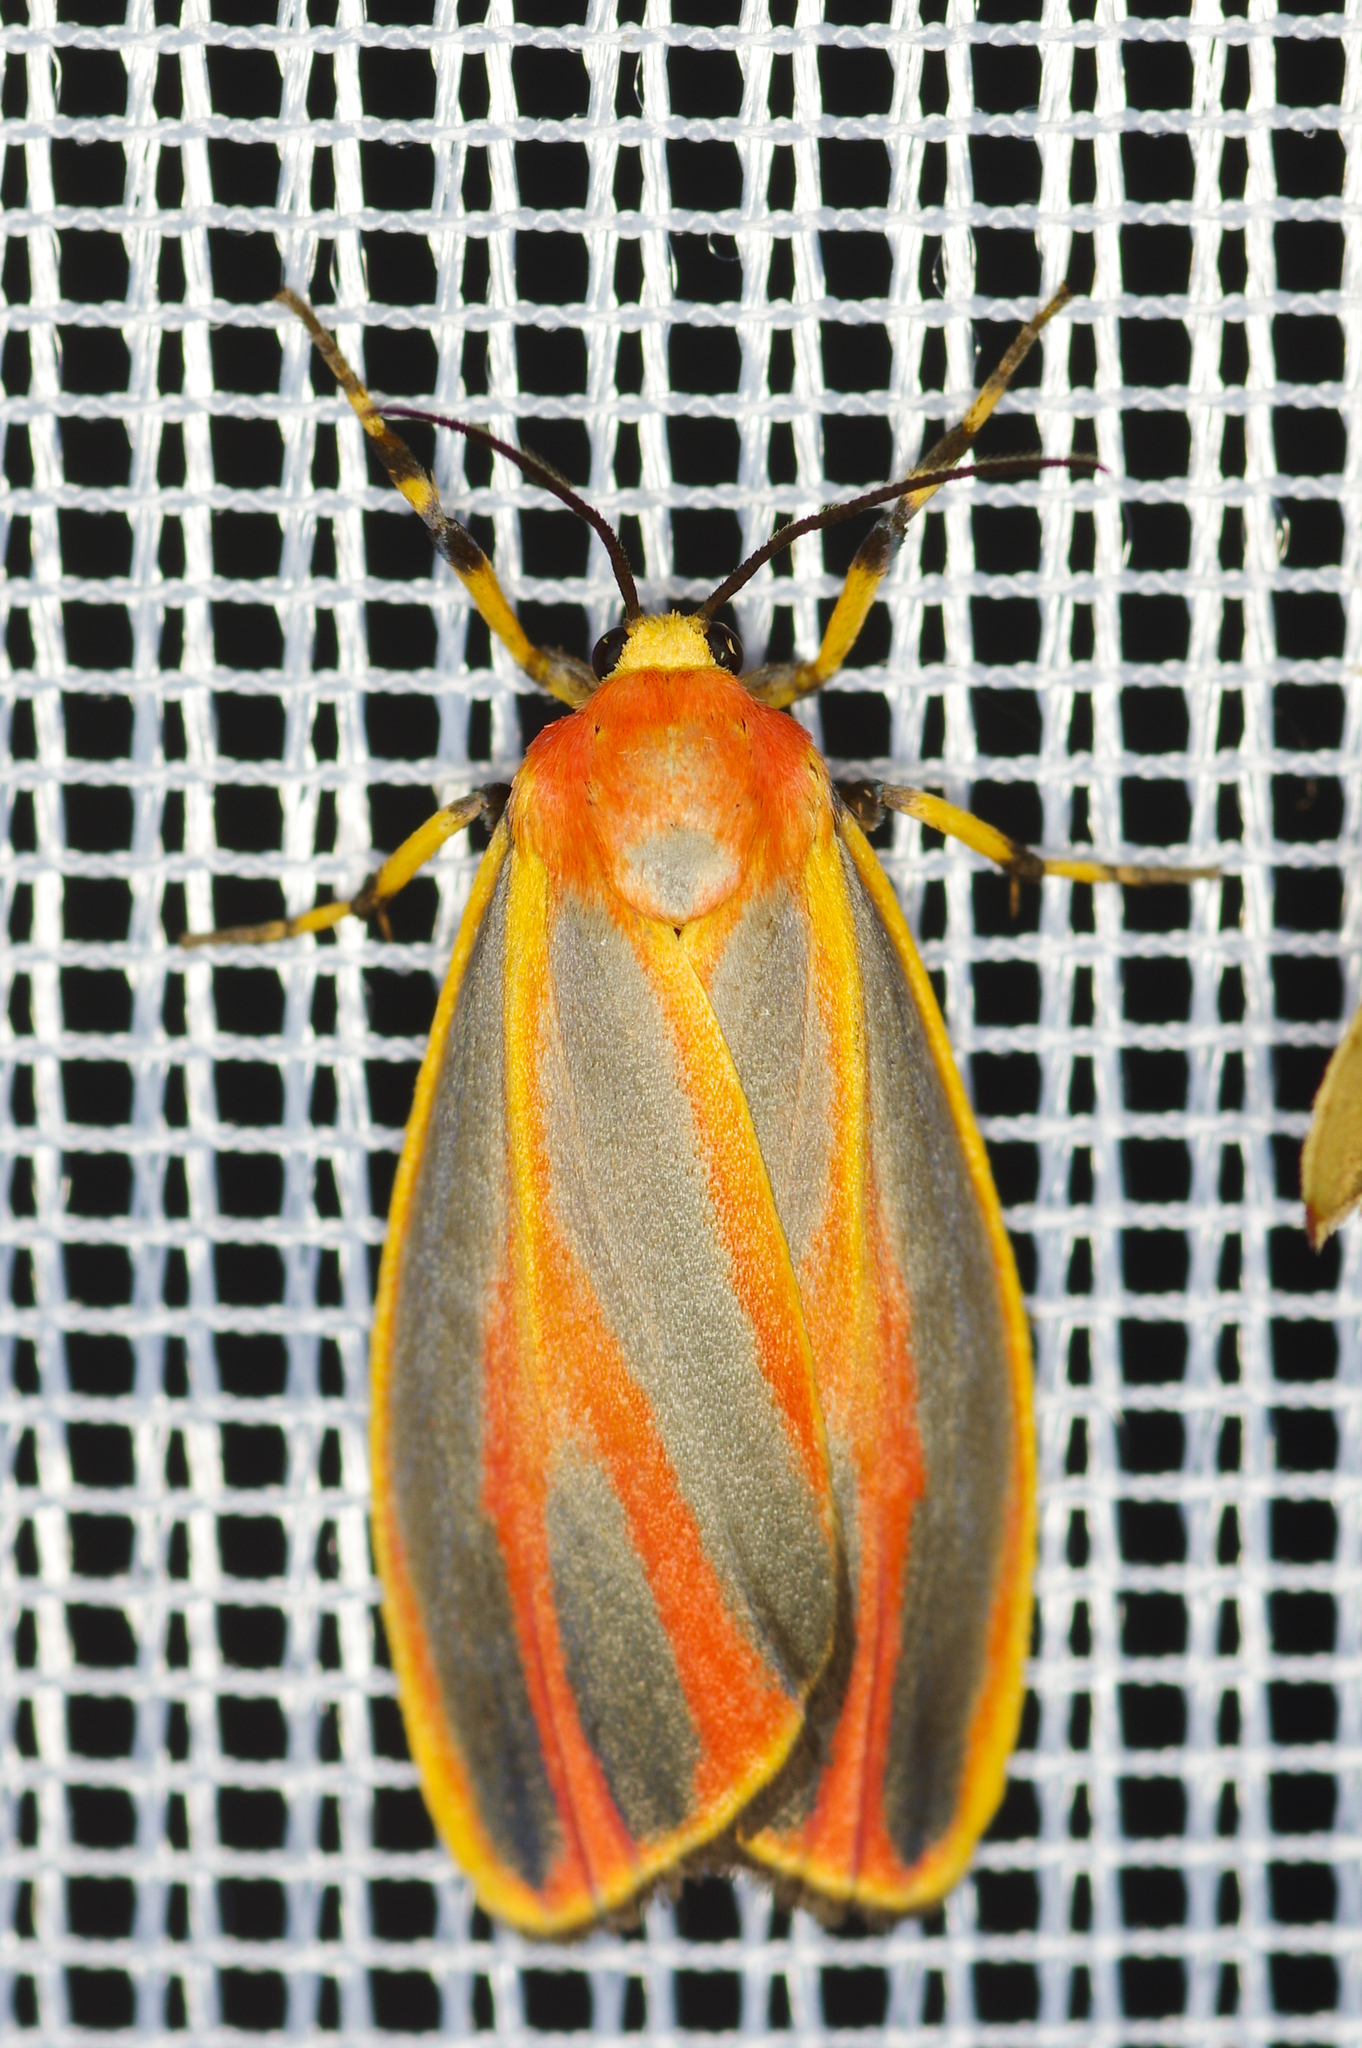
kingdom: Animalia
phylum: Arthropoda
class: Insecta
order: Lepidoptera
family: Erebidae
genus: Hypoprepia
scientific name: Hypoprepia fucosa
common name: Painted lichen moth
